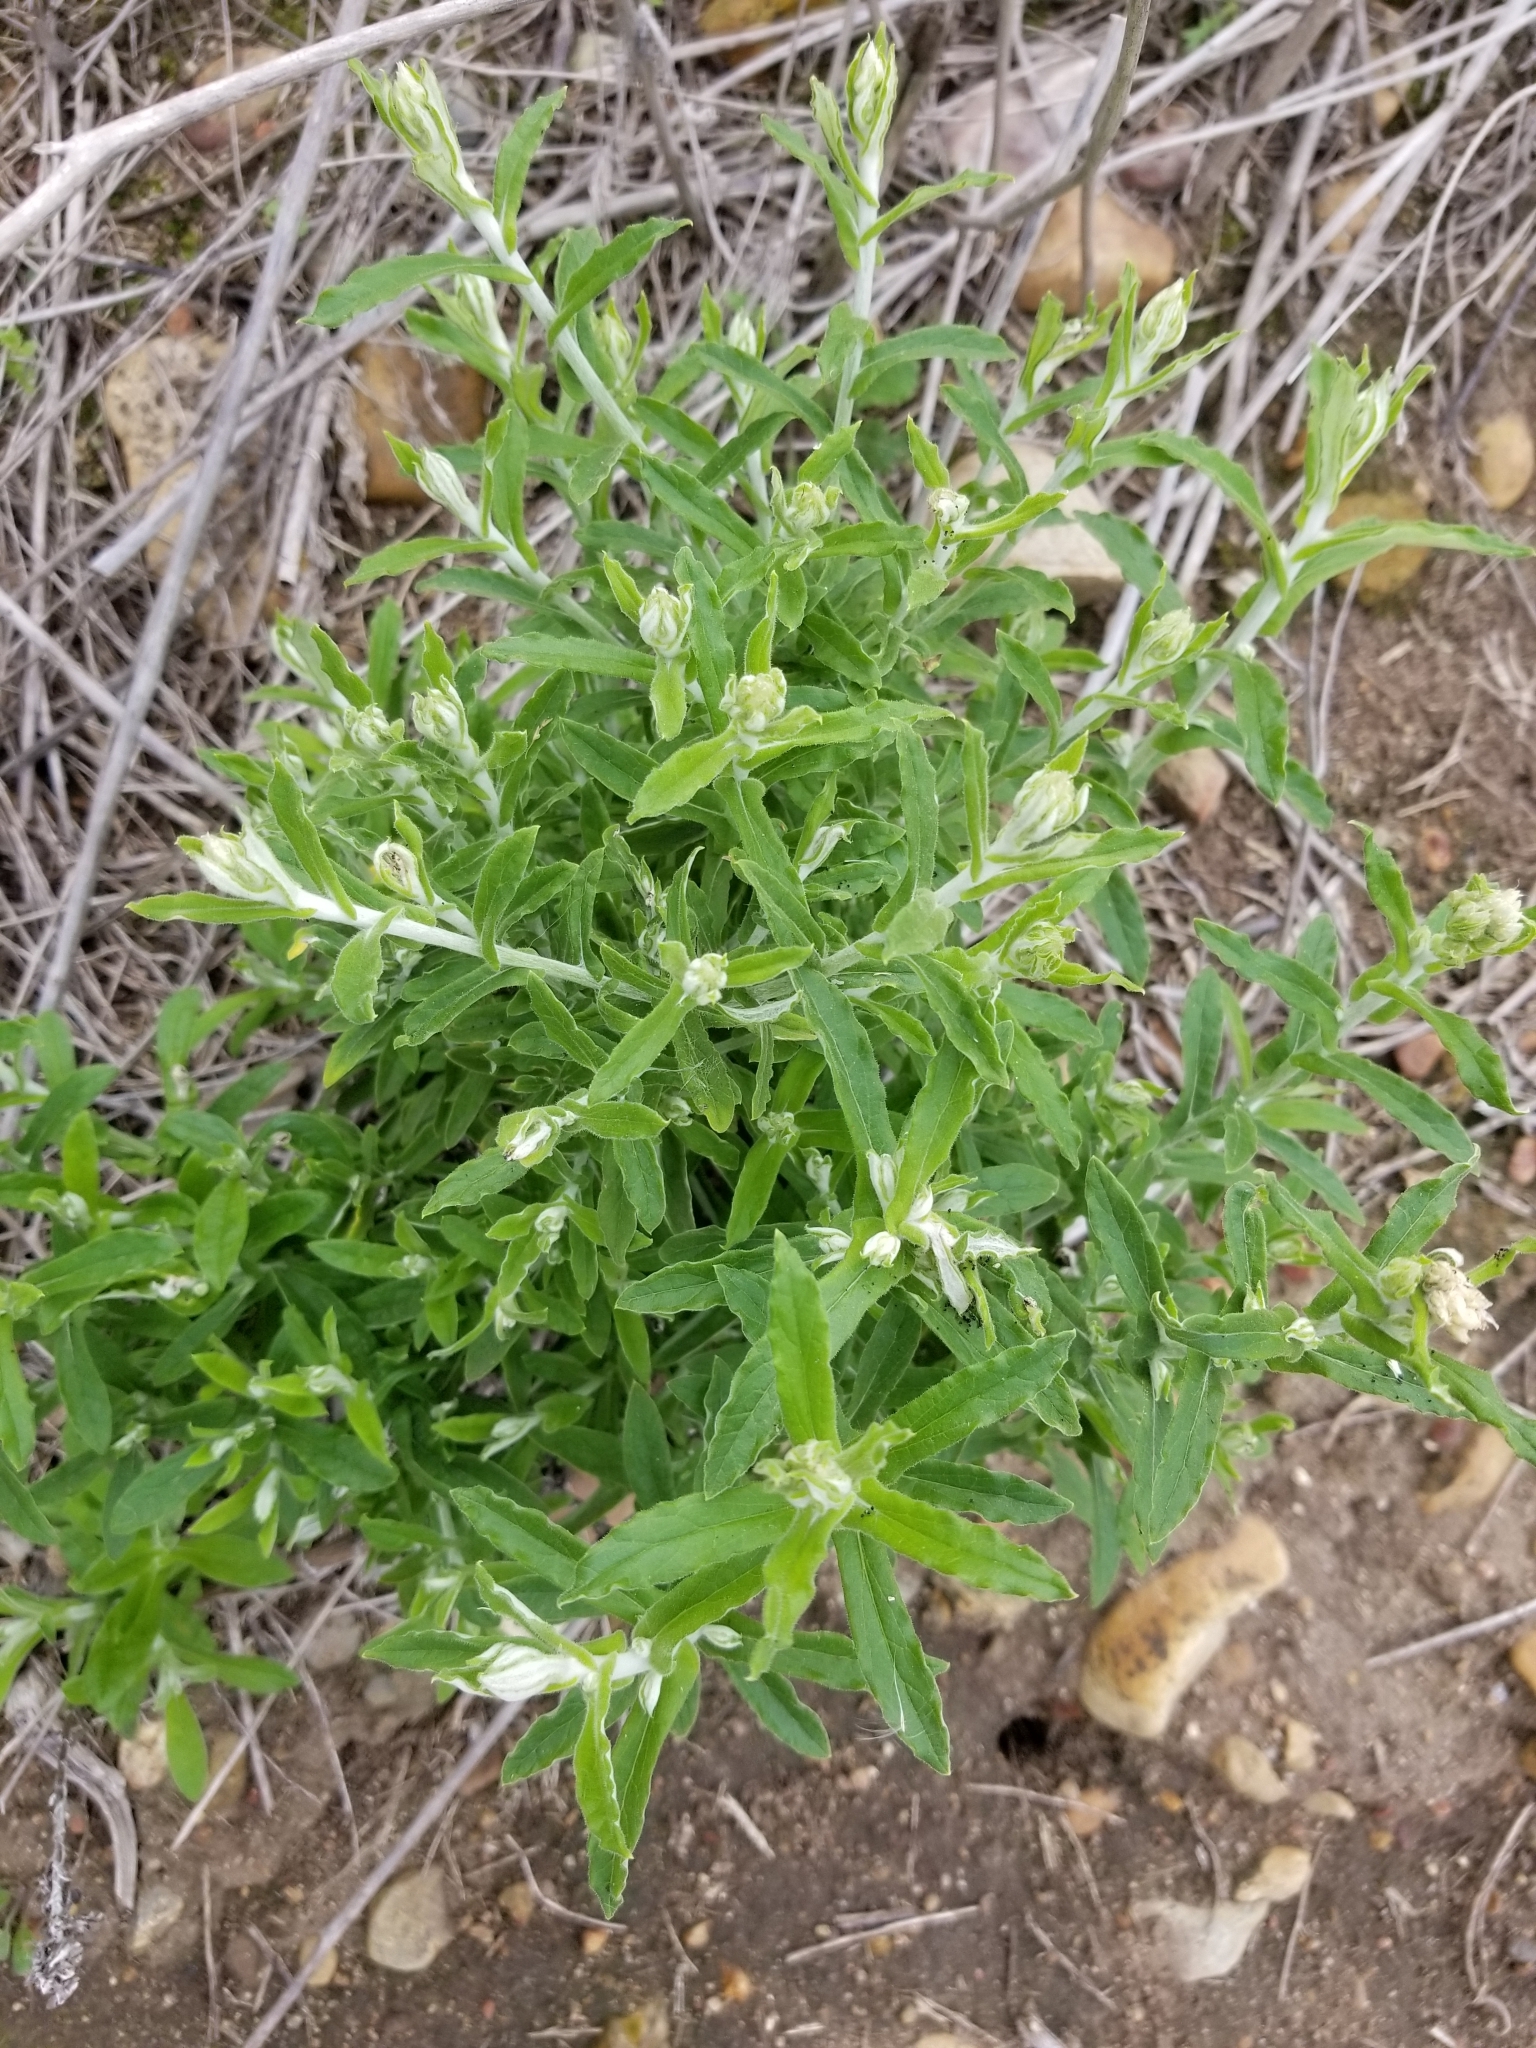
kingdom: Plantae
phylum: Tracheophyta
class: Magnoliopsida
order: Asterales
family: Asteraceae
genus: Pseudognaphalium
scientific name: Pseudognaphalium biolettii
